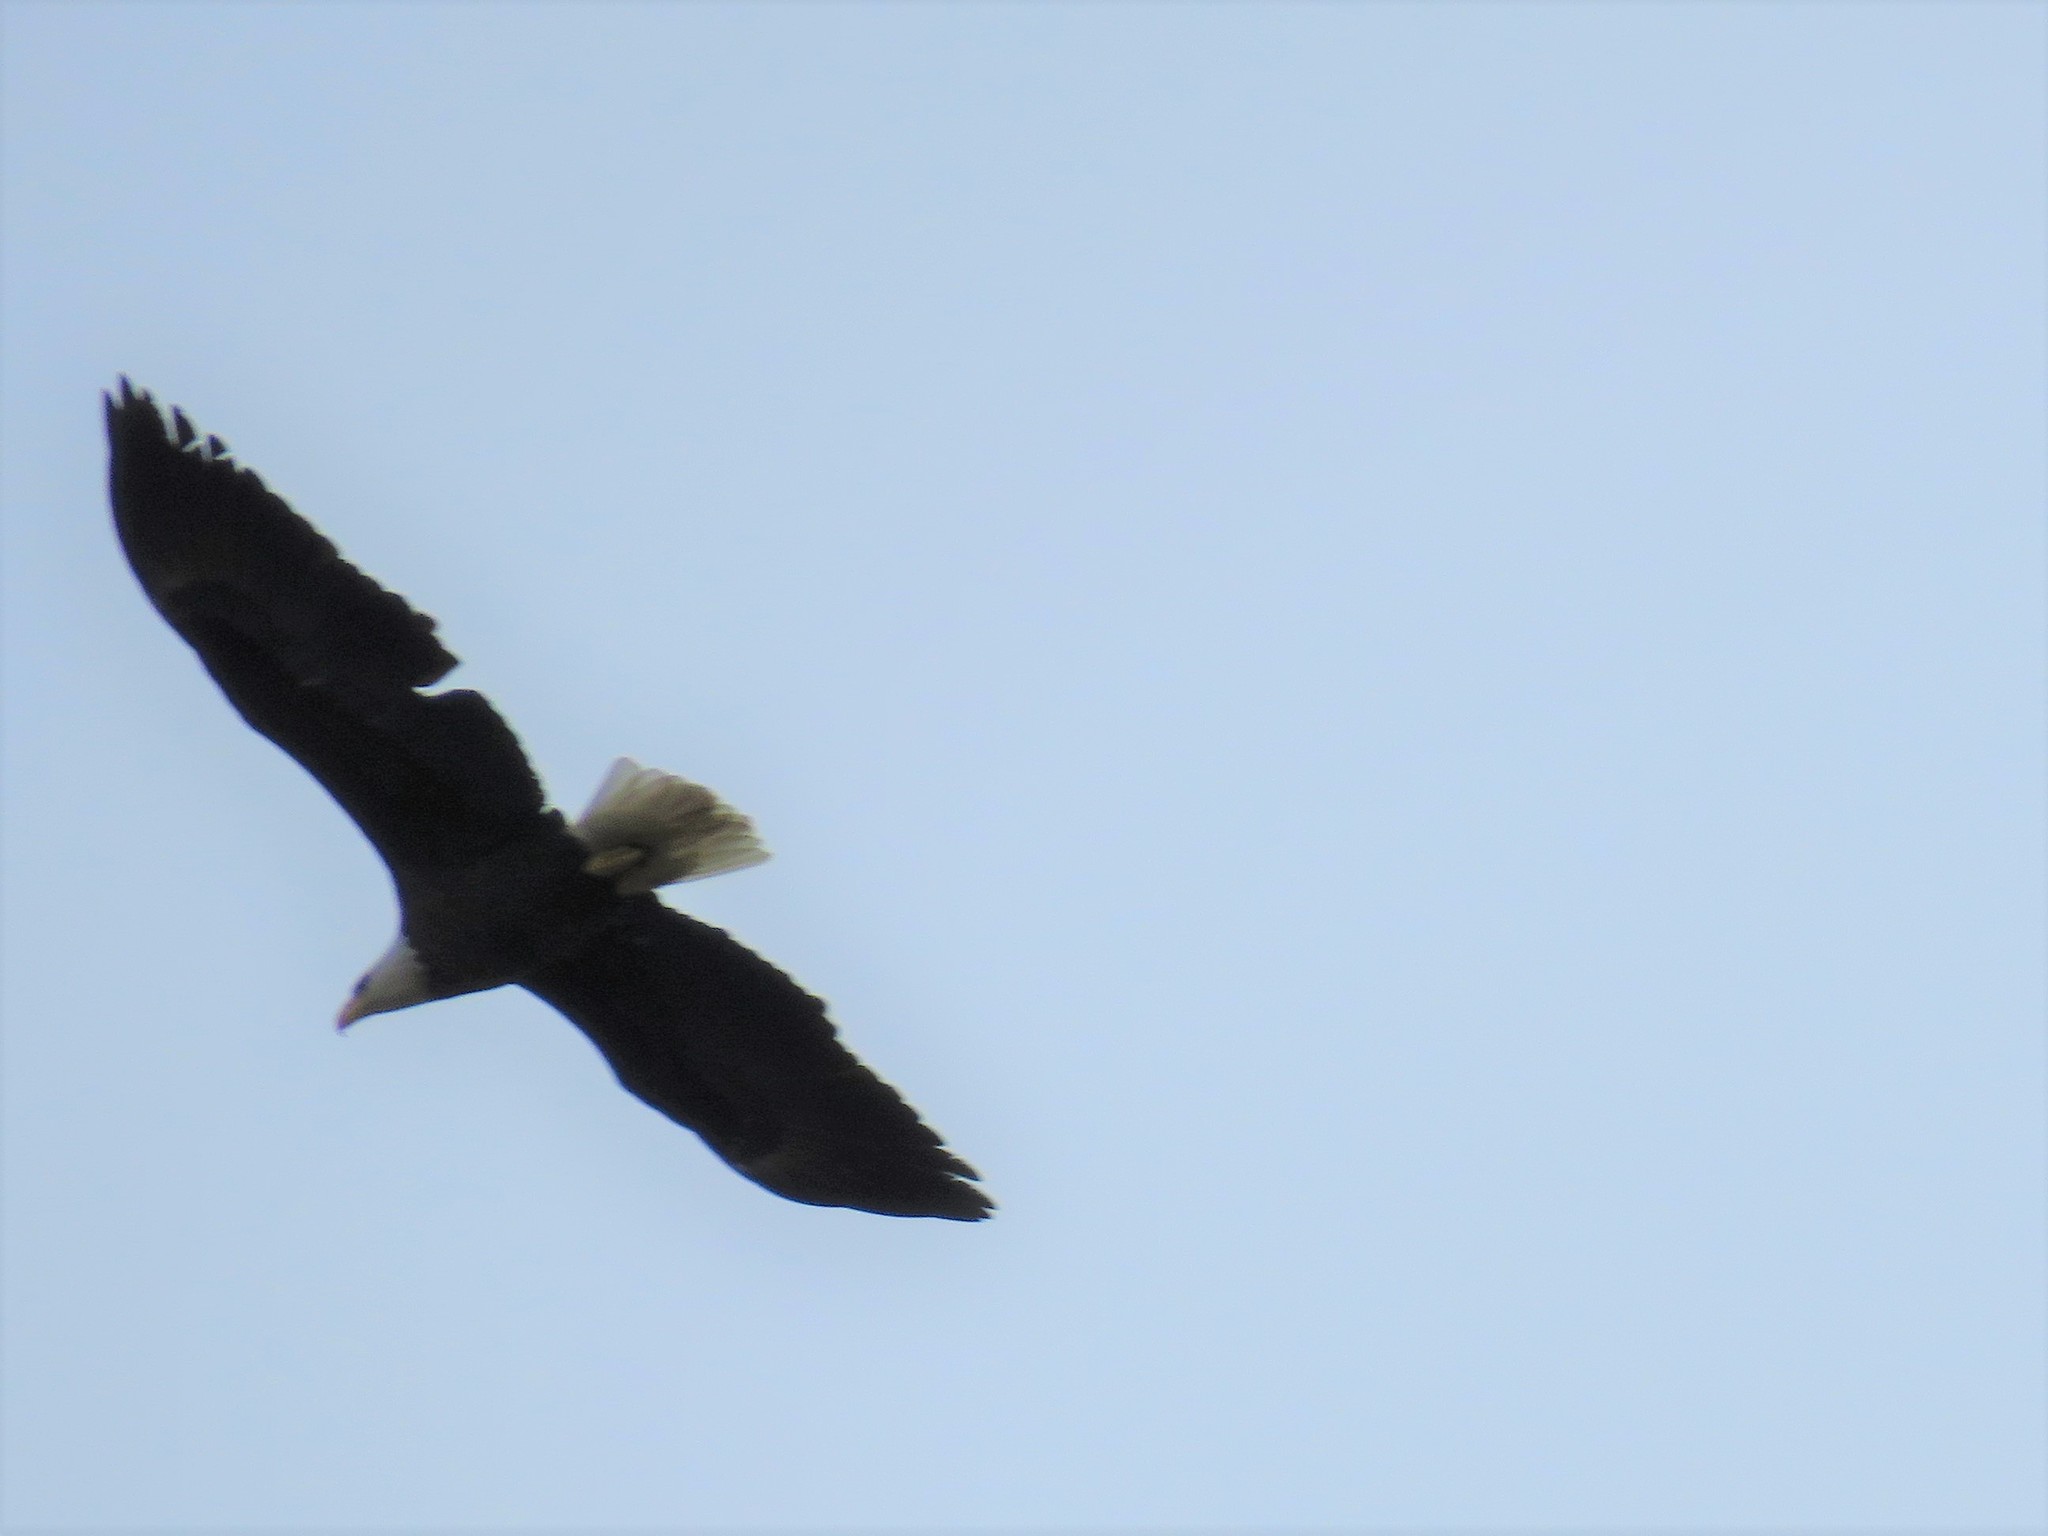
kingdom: Animalia
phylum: Chordata
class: Aves
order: Accipitriformes
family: Accipitridae
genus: Haliaeetus
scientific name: Haliaeetus leucocephalus
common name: Bald eagle
